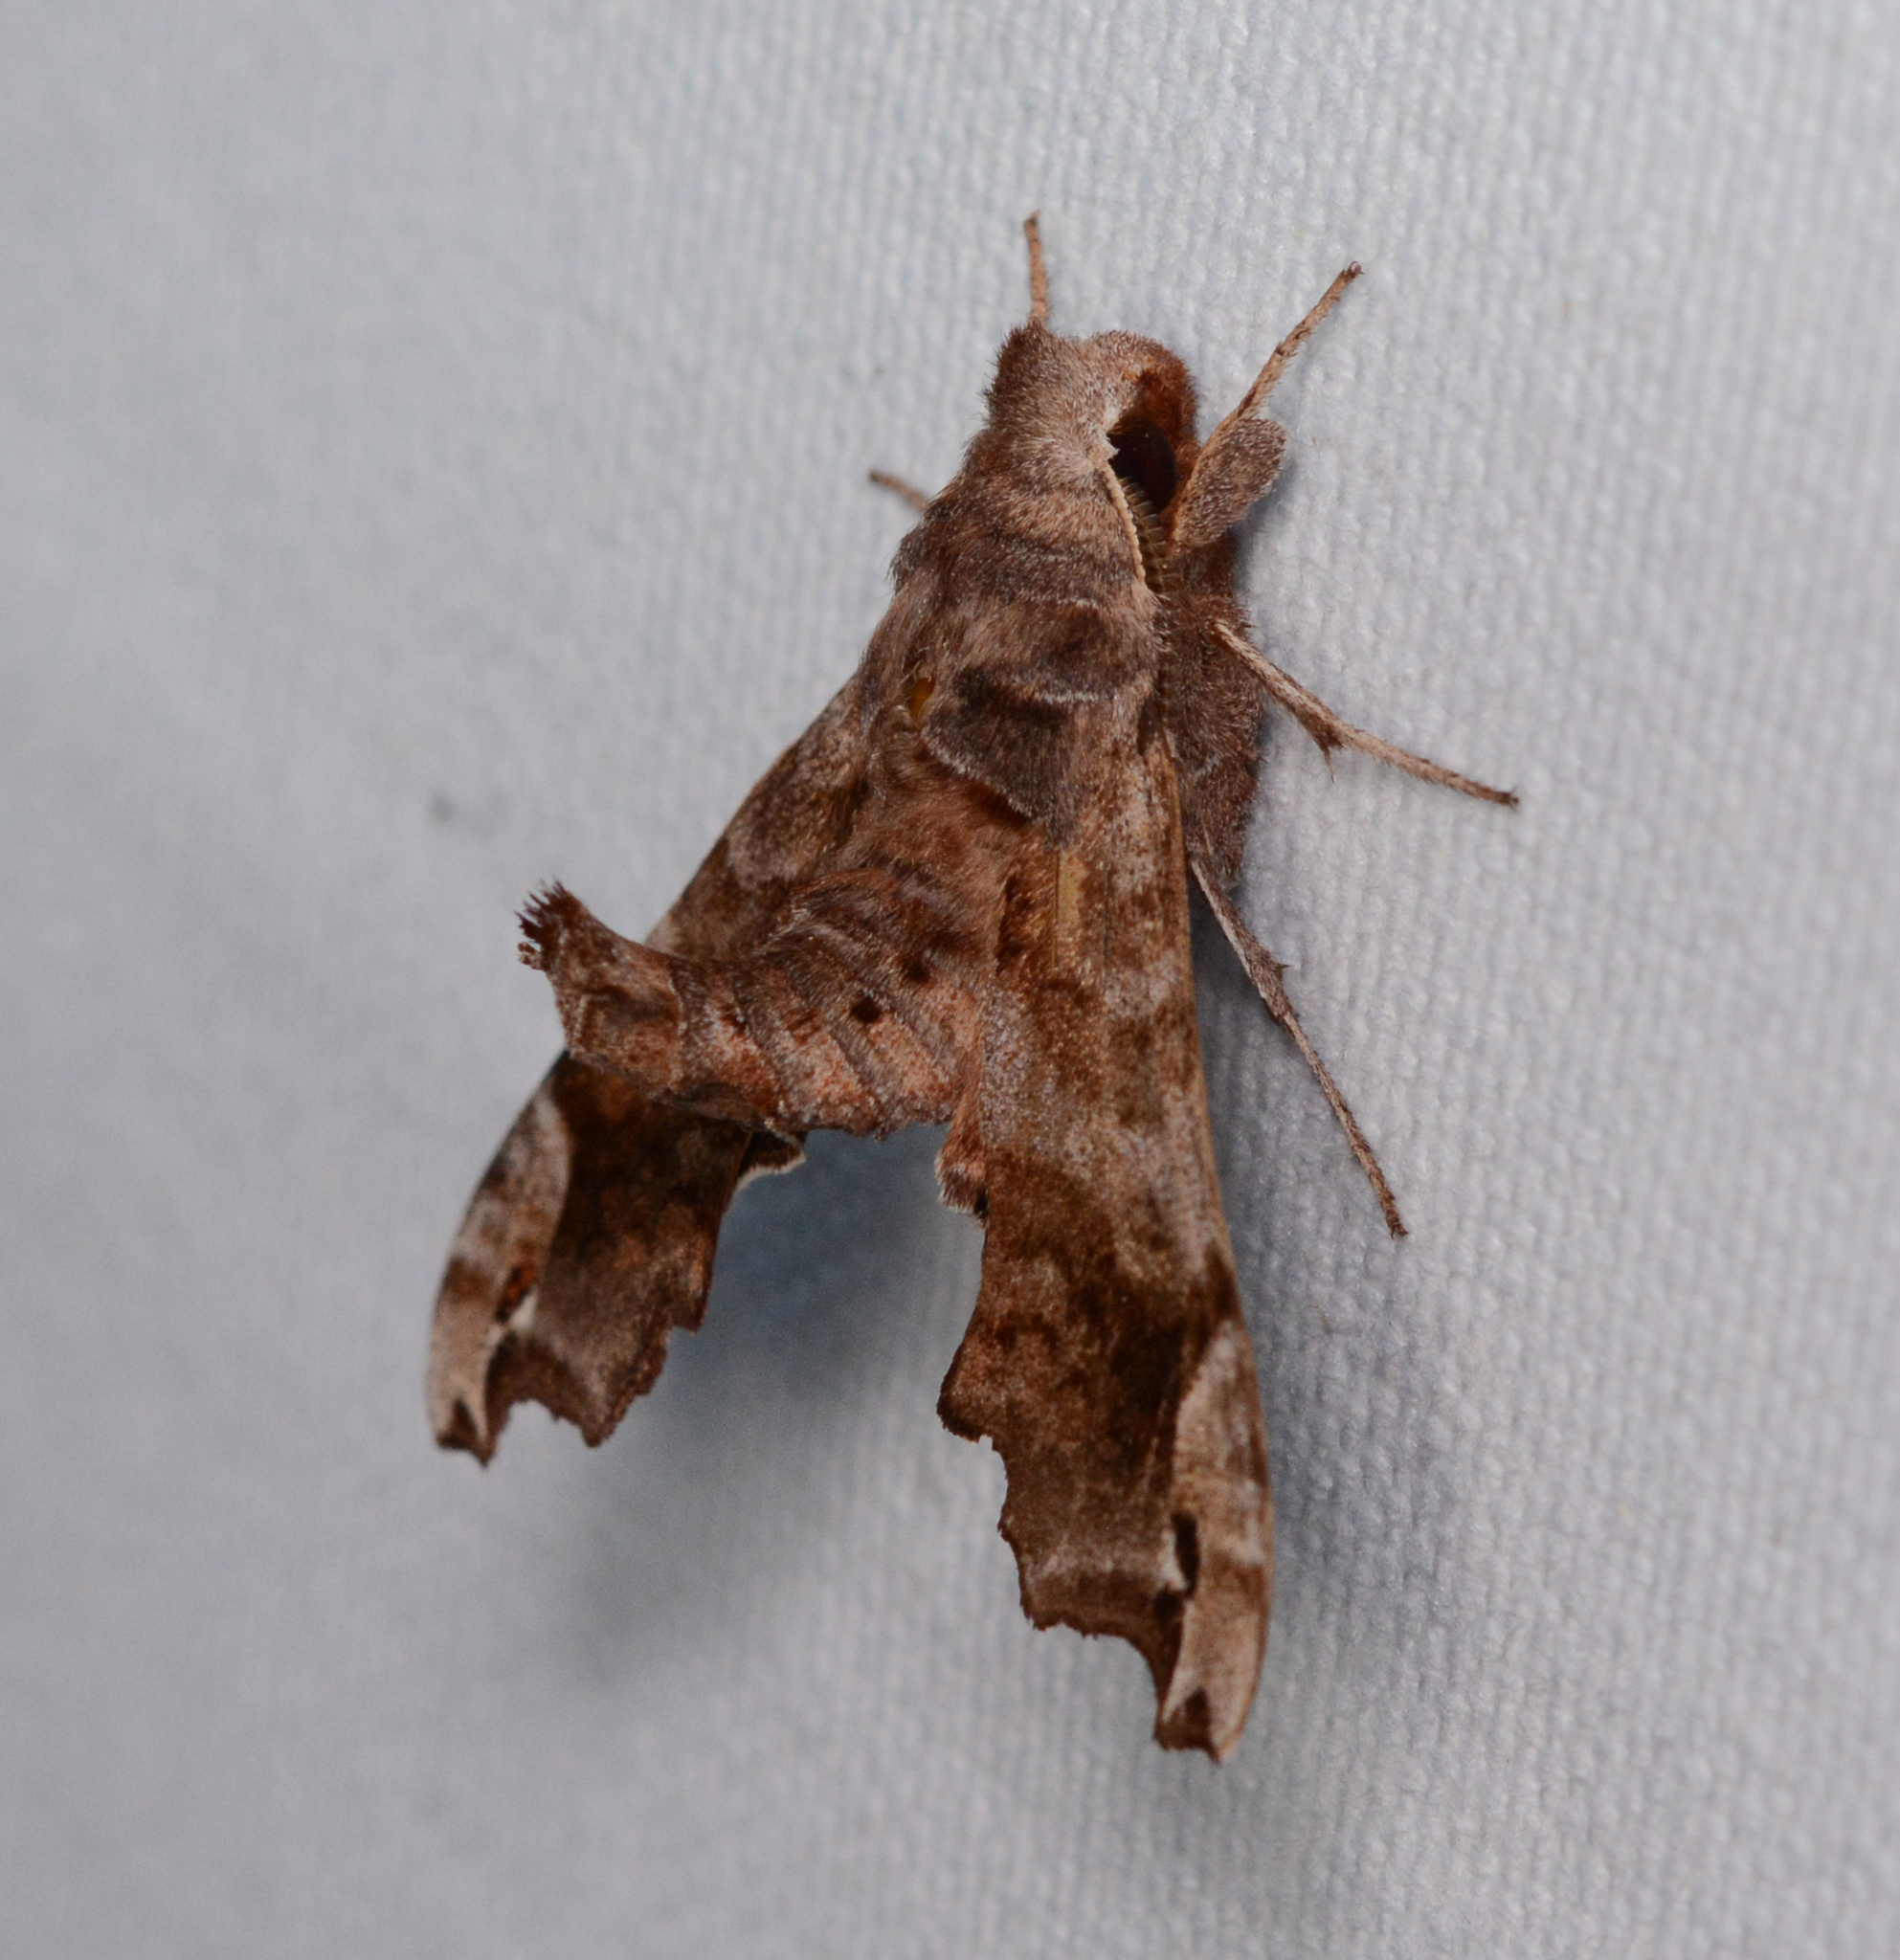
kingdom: Animalia
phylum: Arthropoda
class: Insecta
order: Lepidoptera
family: Sphingidae
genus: Deidamia
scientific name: Deidamia inscriptum
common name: Lettered sphinx
